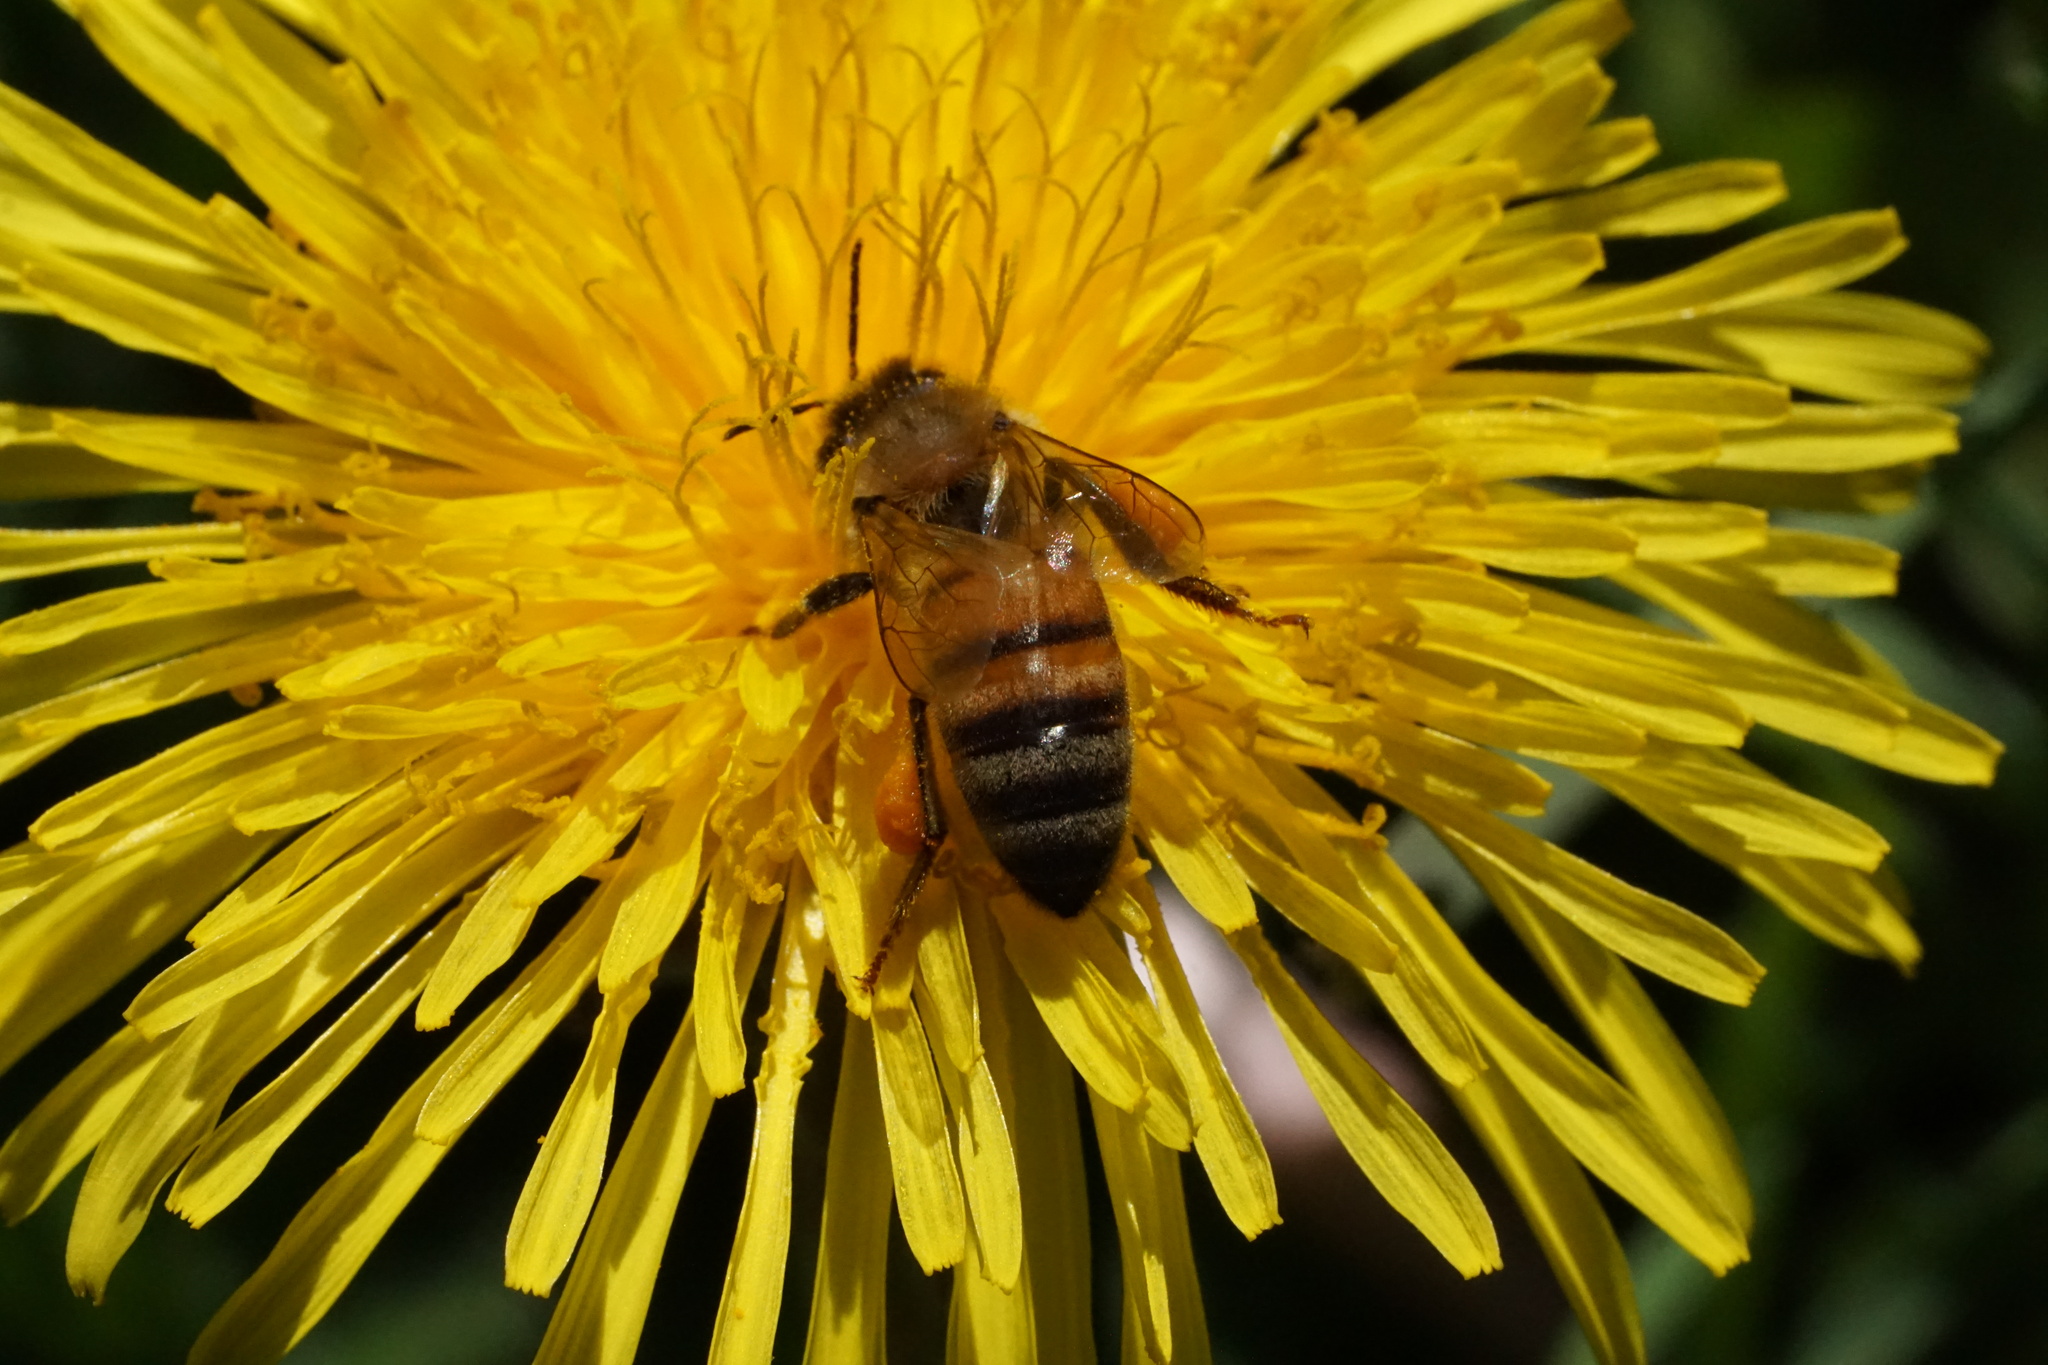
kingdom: Animalia
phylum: Arthropoda
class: Insecta
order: Hymenoptera
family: Apidae
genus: Apis
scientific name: Apis mellifera
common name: Honey bee
